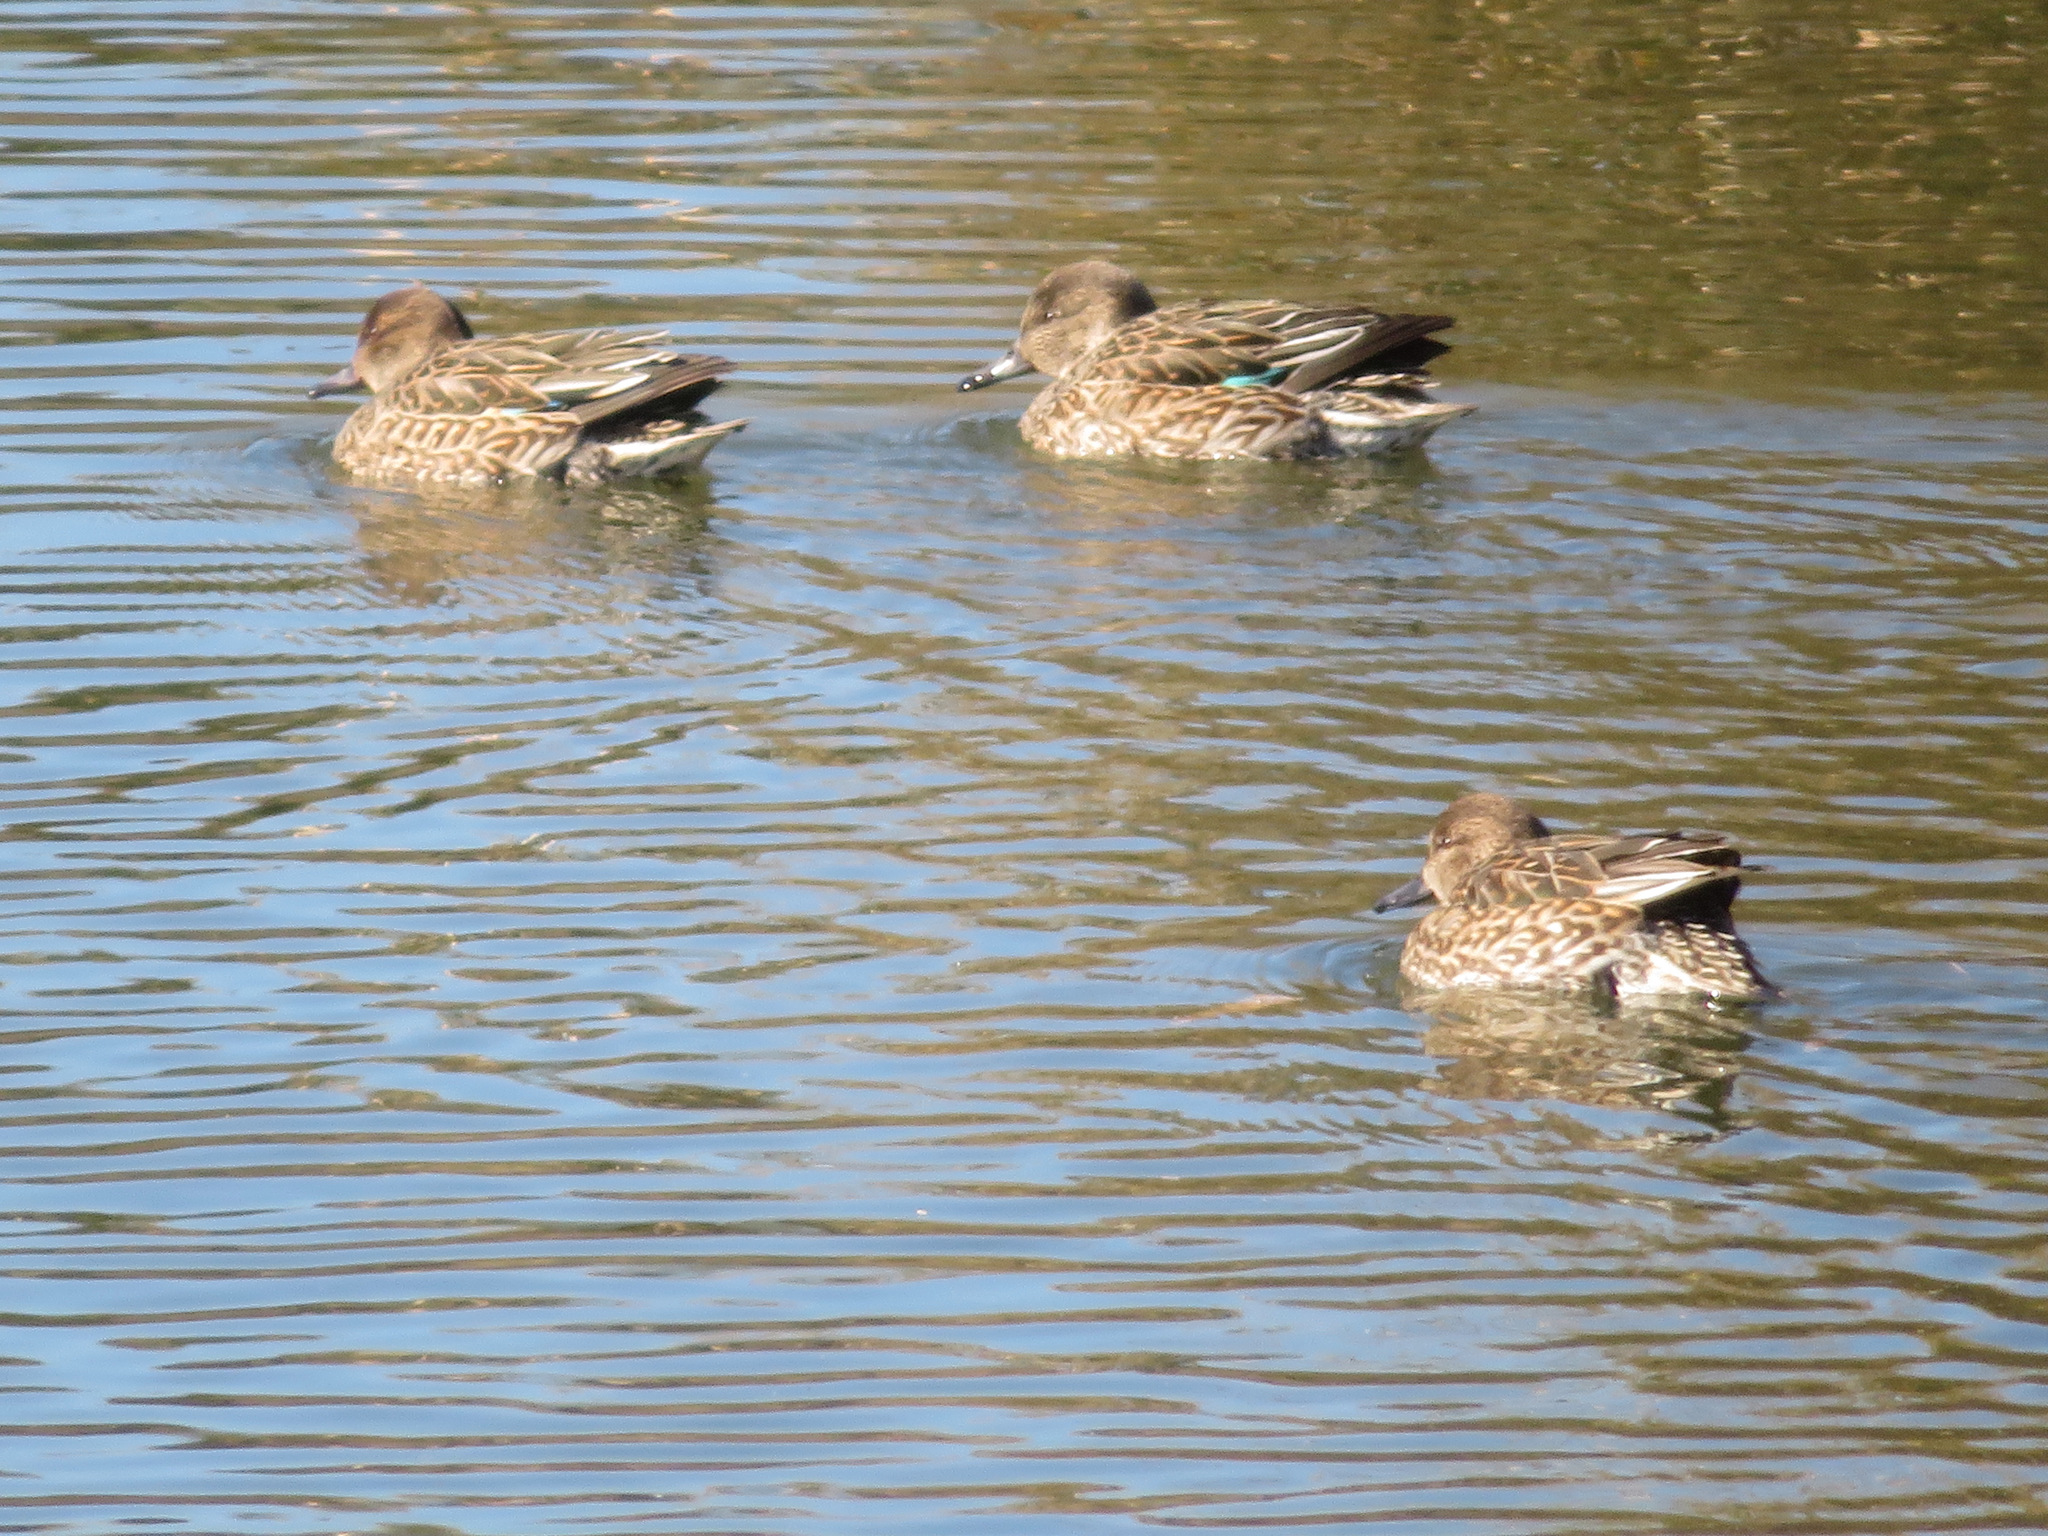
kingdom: Animalia
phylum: Chordata
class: Aves
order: Anseriformes
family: Anatidae
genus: Anas
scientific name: Anas crecca
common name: Eurasian teal
